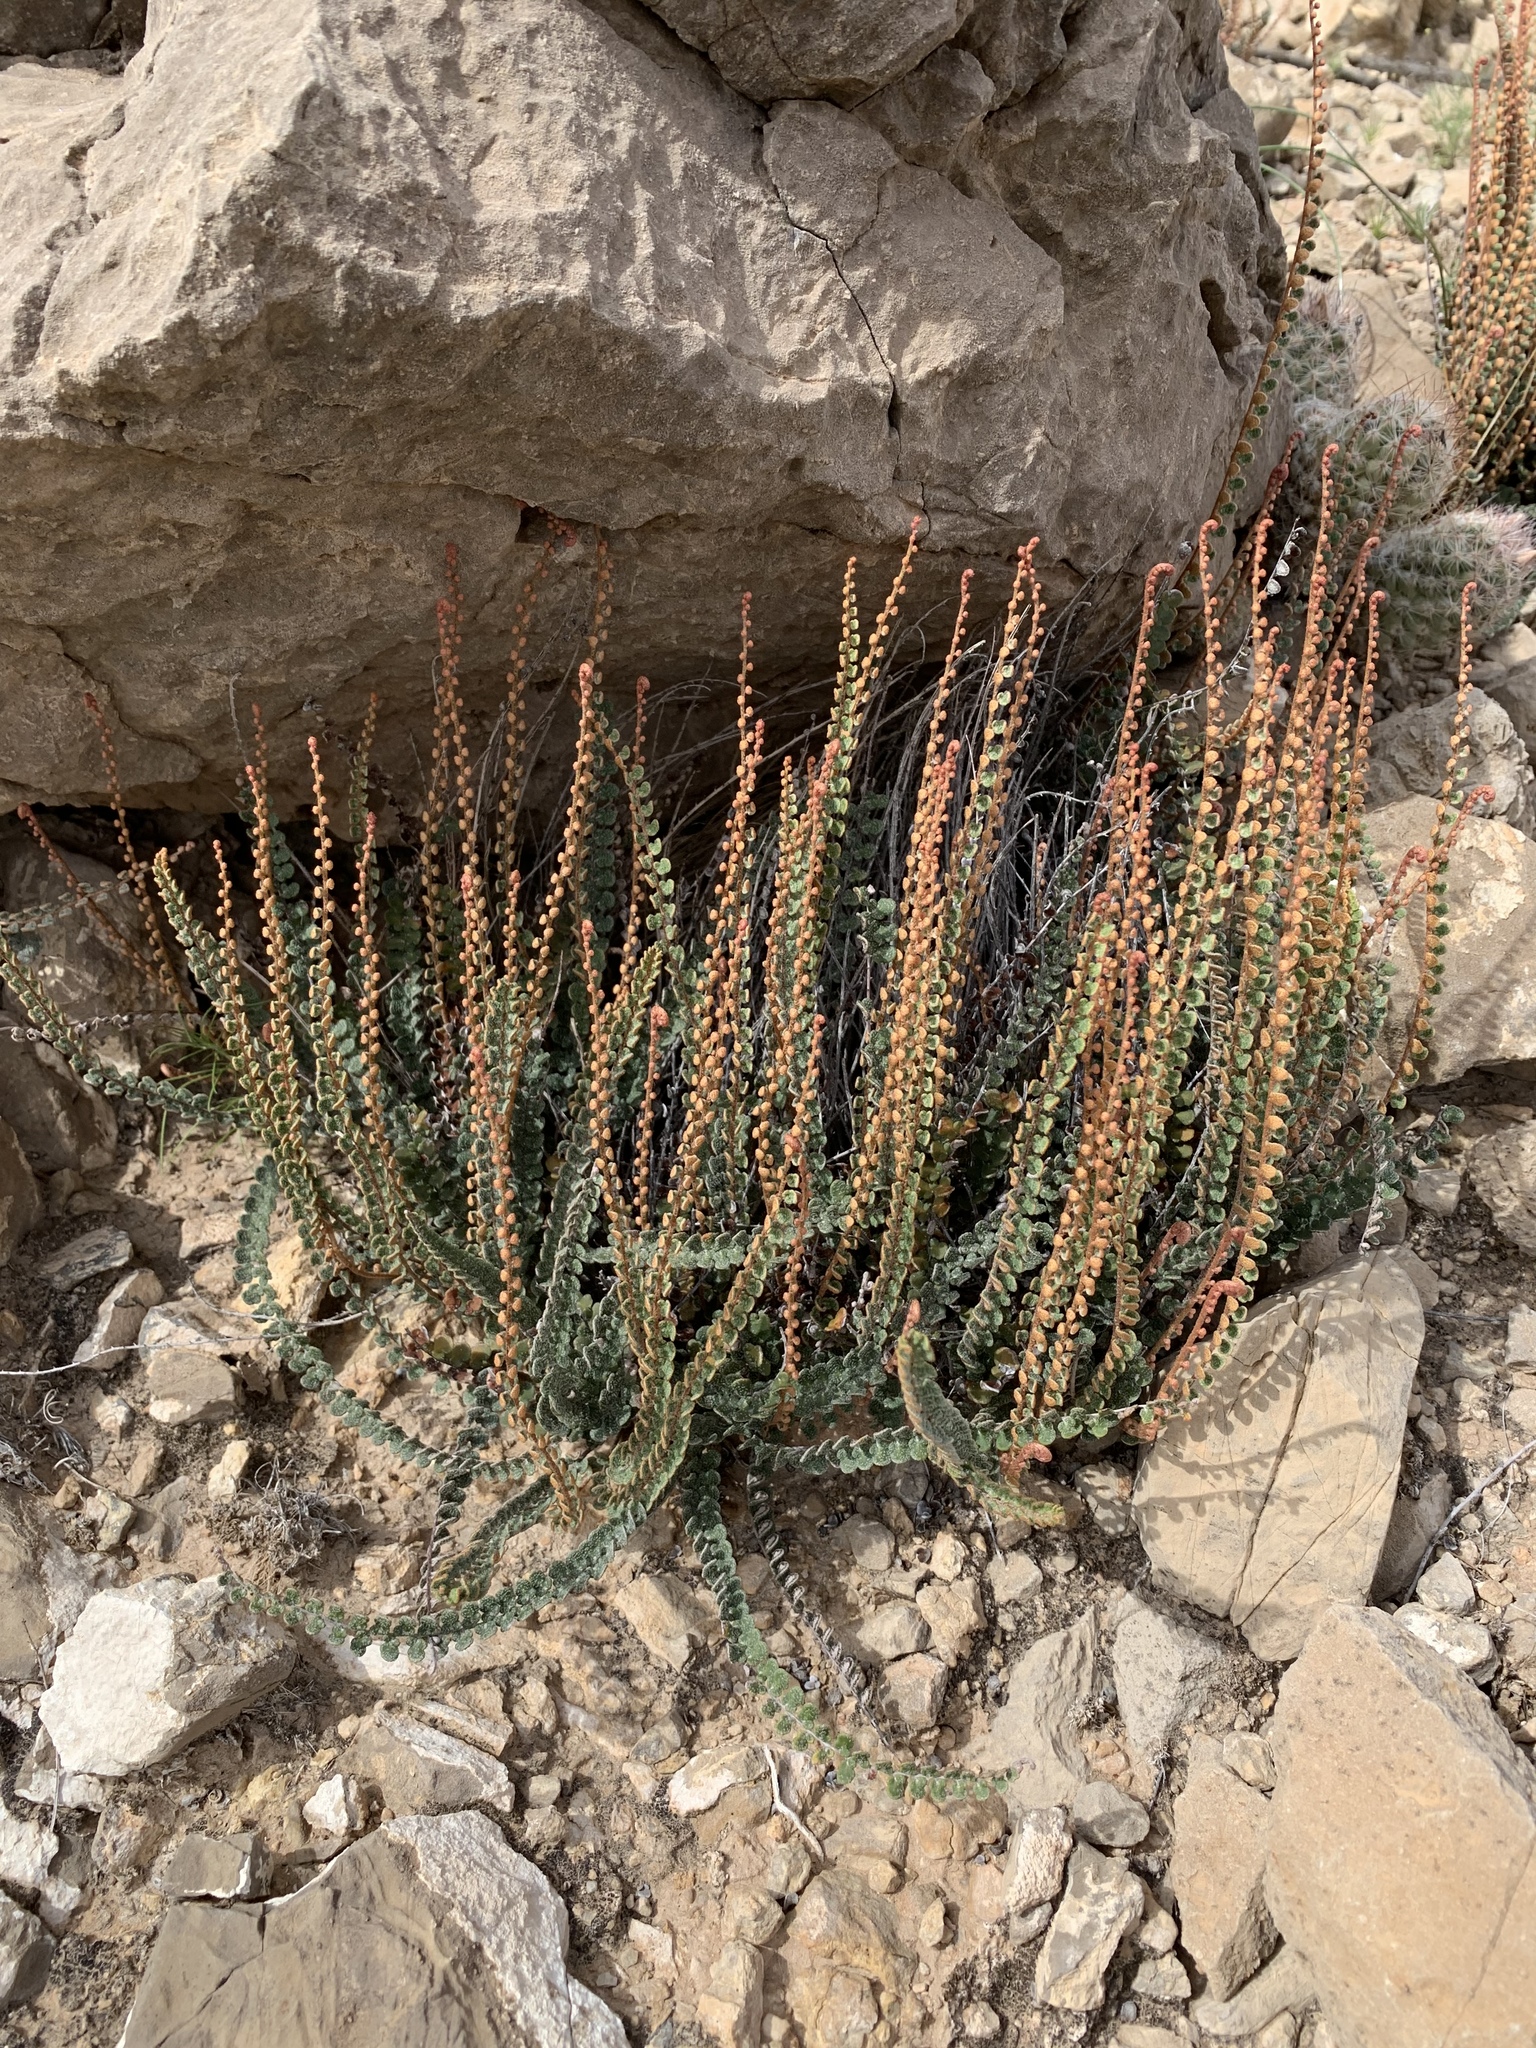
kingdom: Plantae
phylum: Tracheophyta
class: Polypodiopsida
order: Polypodiales
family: Pteridaceae
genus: Astrolepis
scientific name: Astrolepis cochisensis
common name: Scaly cloak fern
